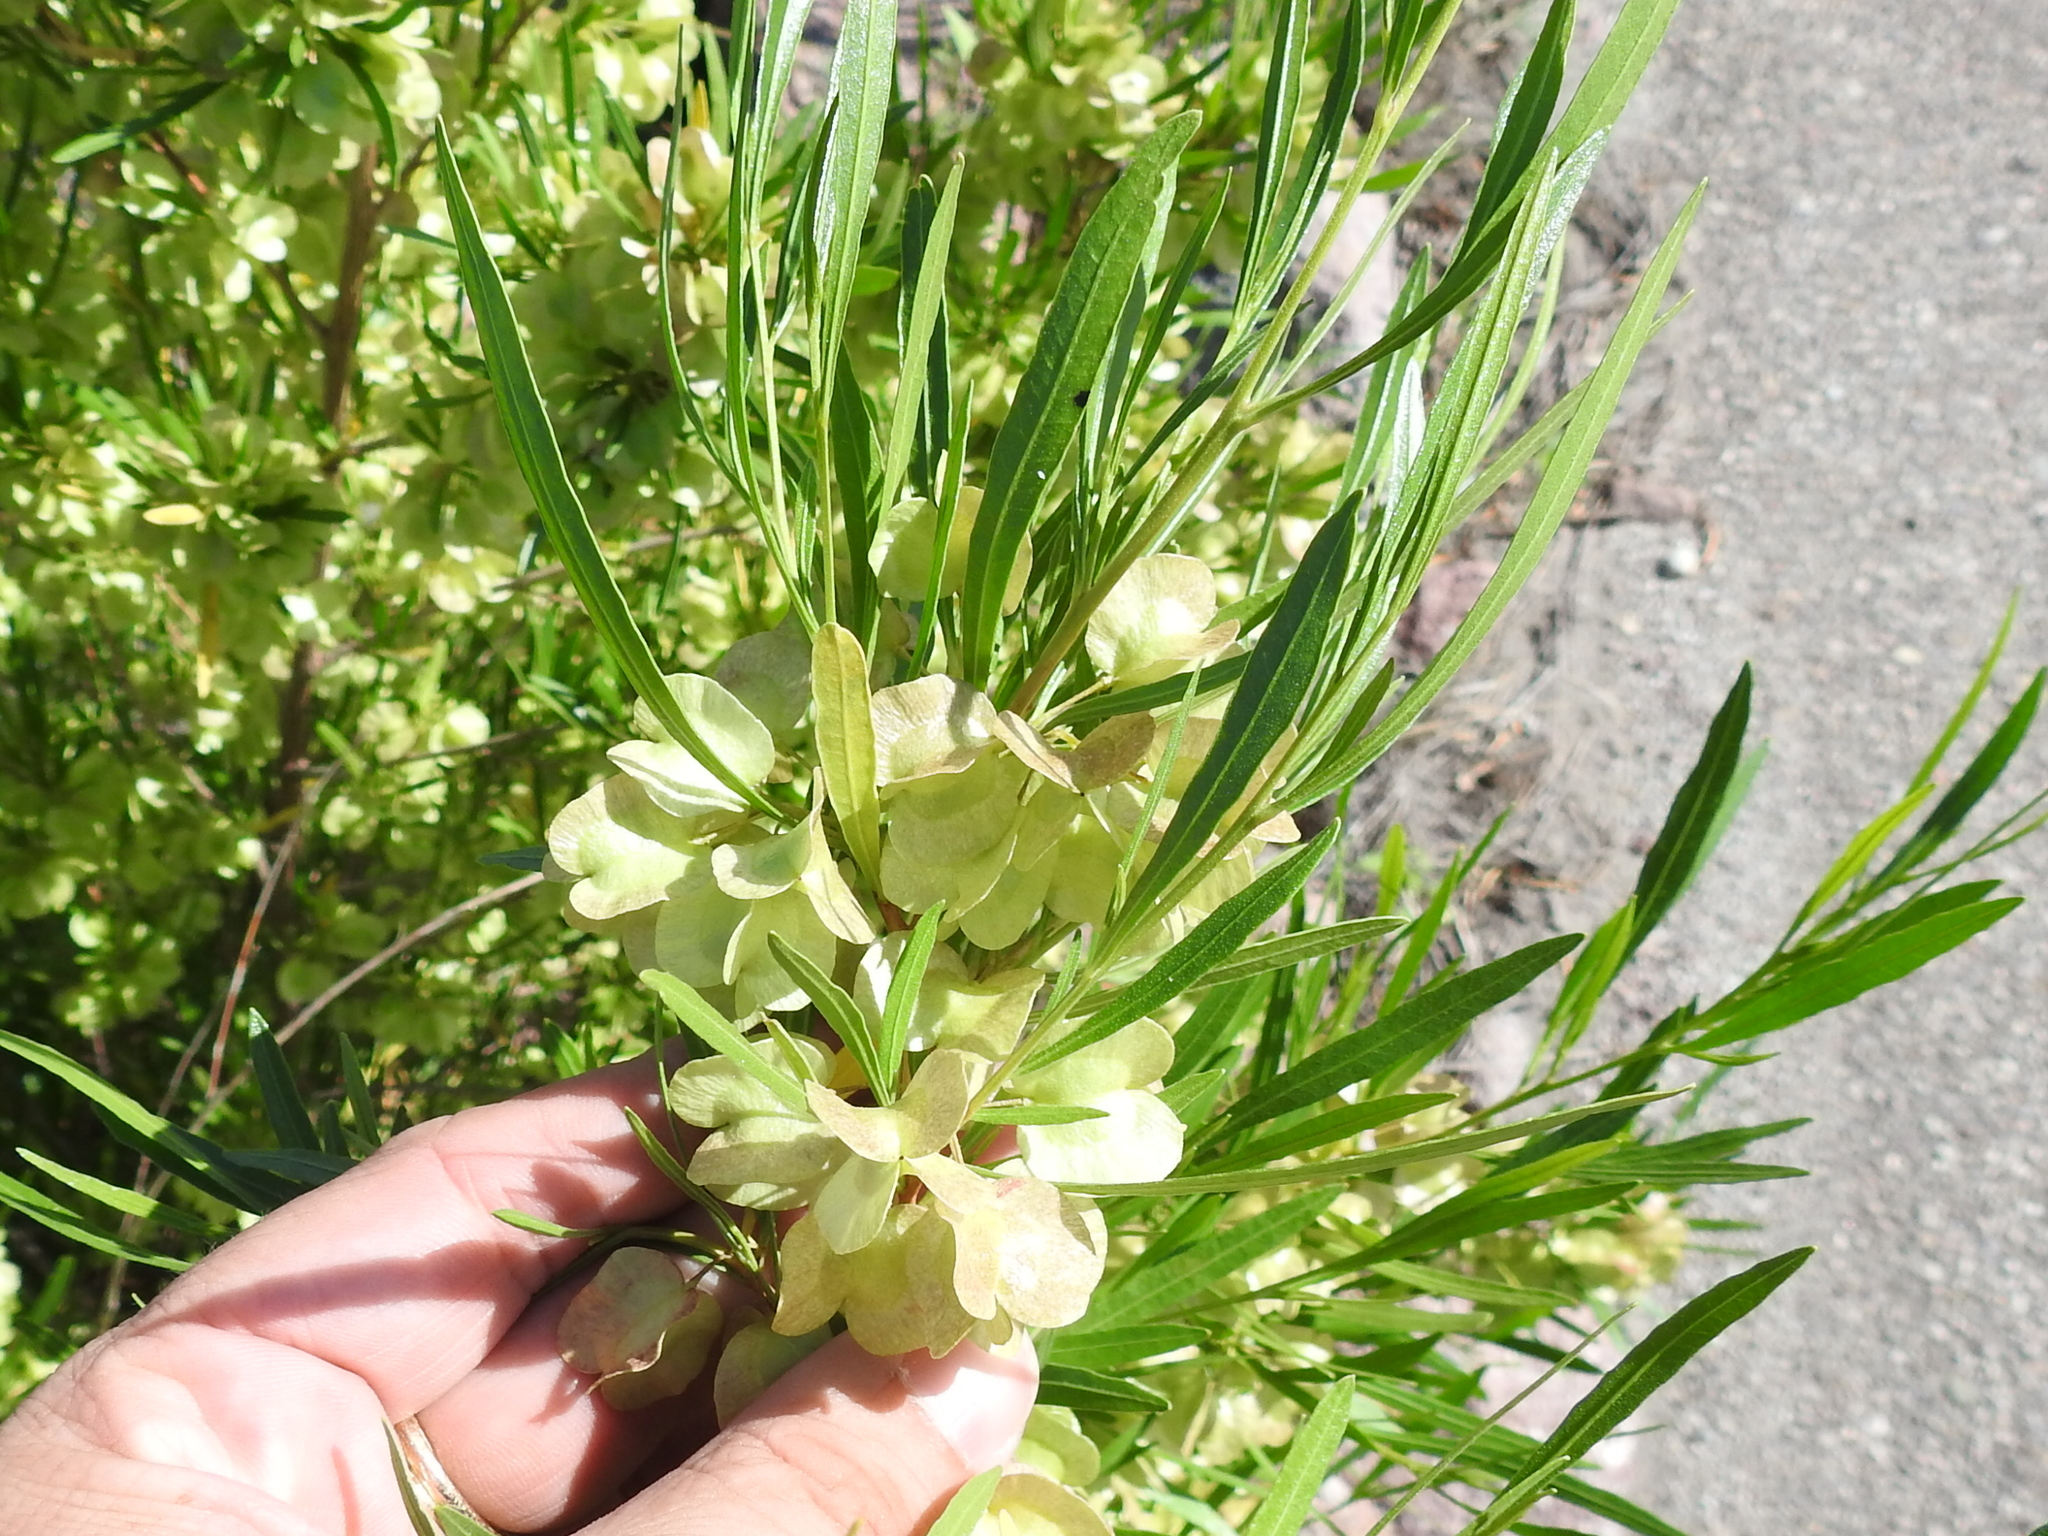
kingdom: Plantae
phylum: Tracheophyta
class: Magnoliopsida
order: Sapindales
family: Sapindaceae
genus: Dodonaea
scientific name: Dodonaea viscosa
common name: Hopbush
